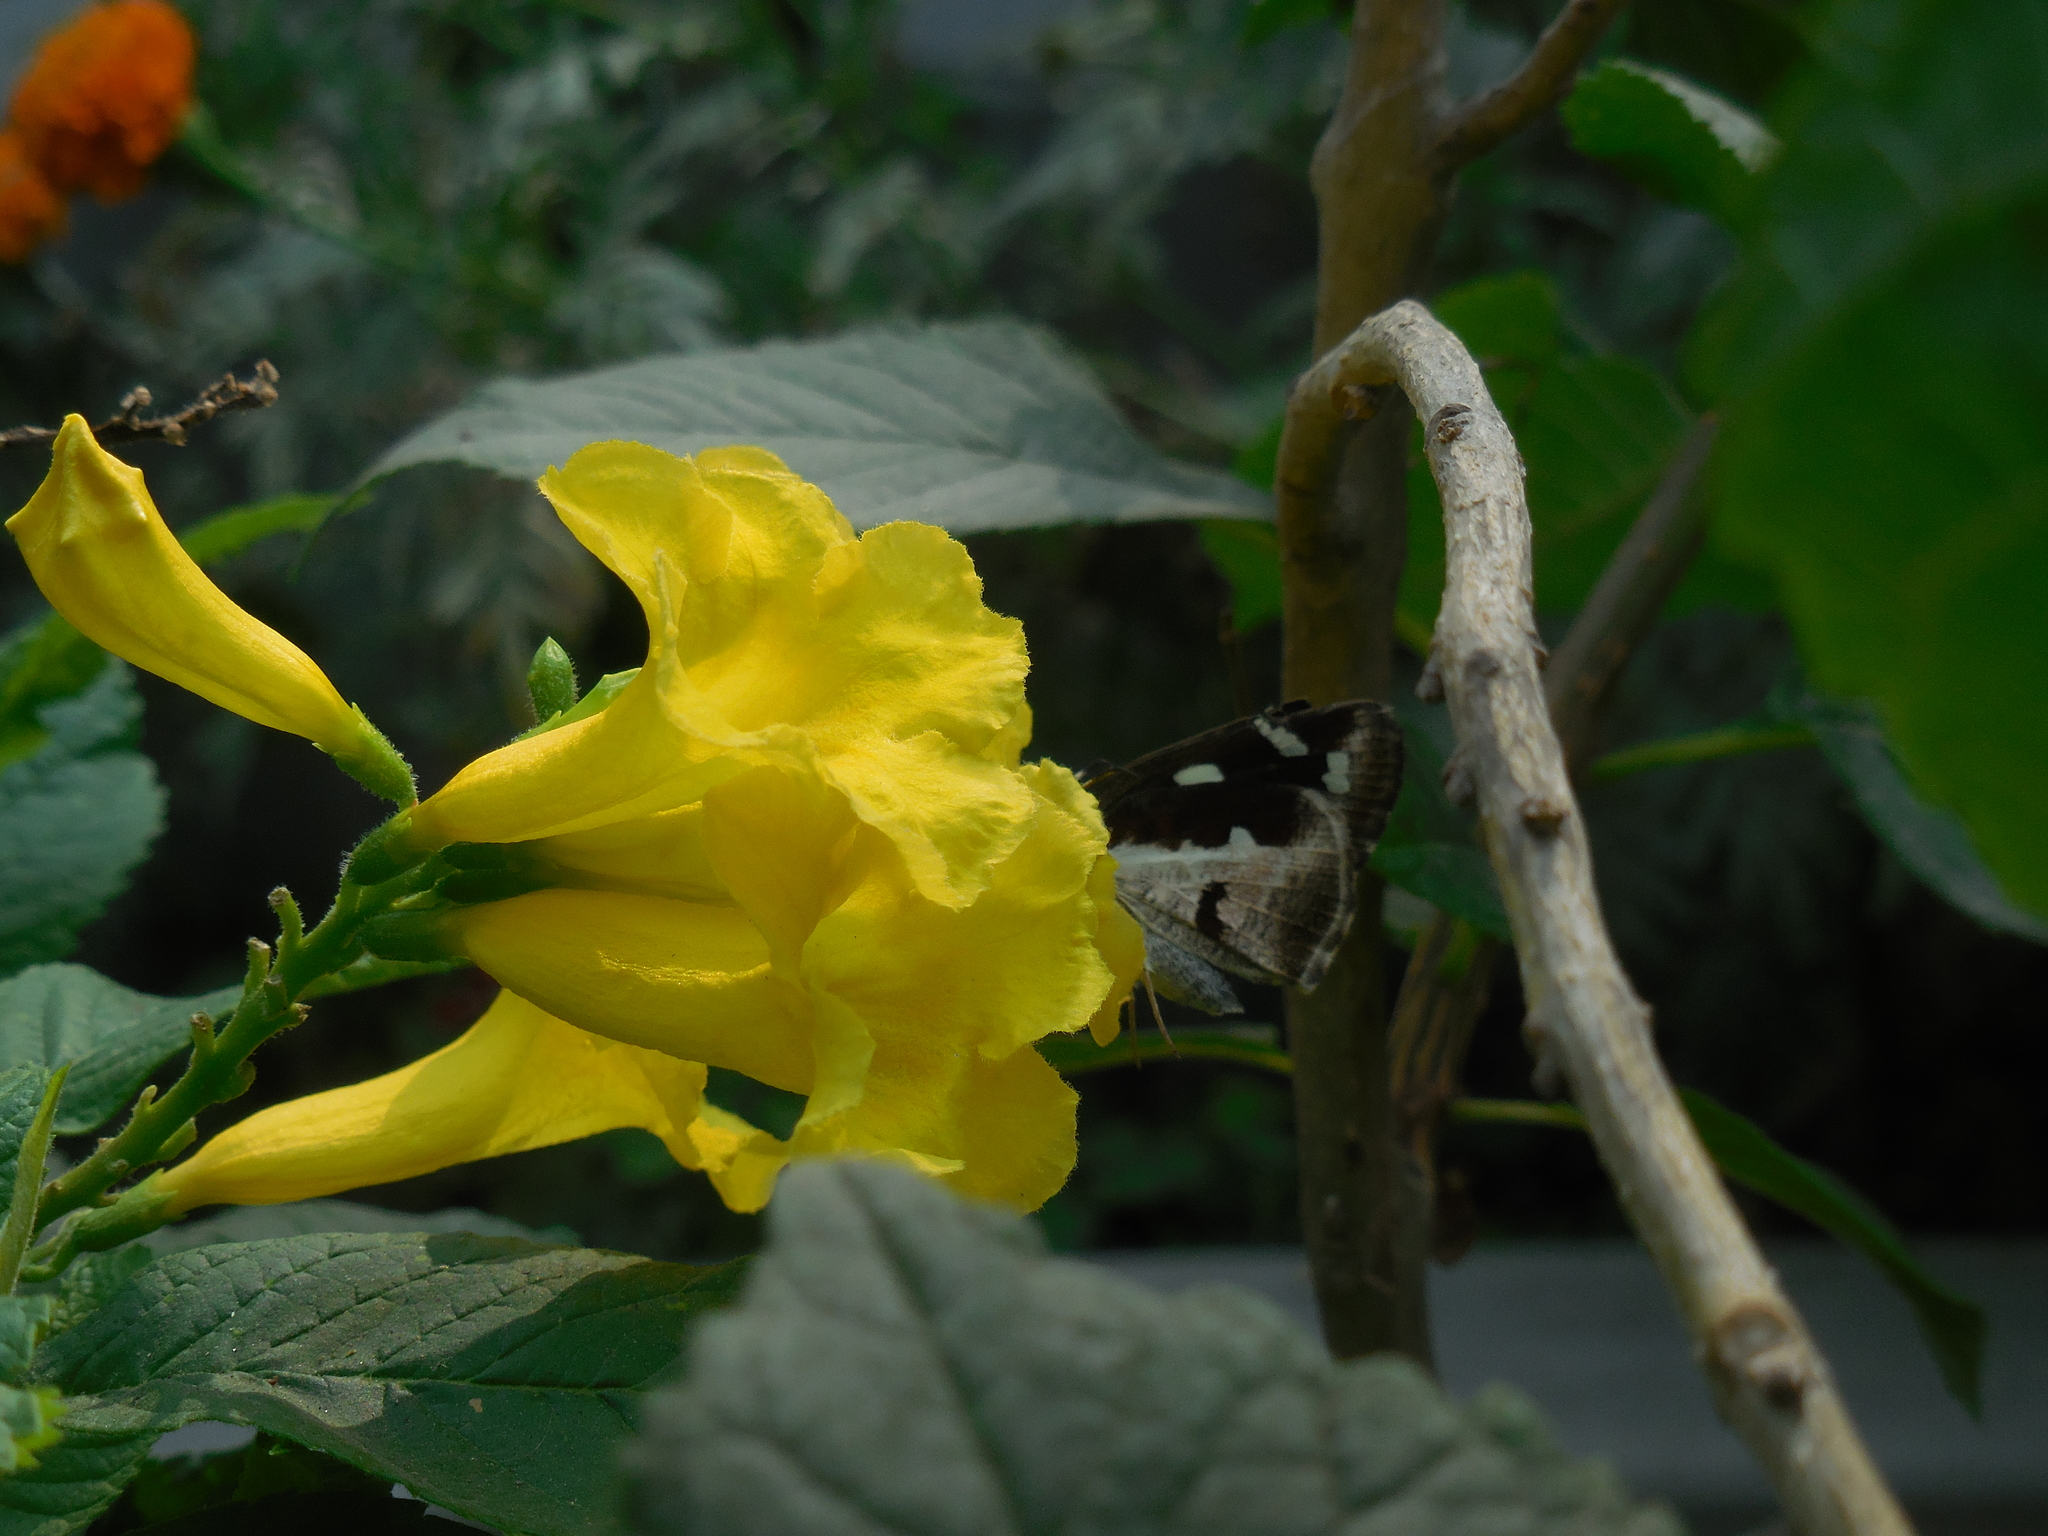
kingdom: Animalia
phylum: Arthropoda
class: Insecta
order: Lepidoptera
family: Hesperiidae
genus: Udaspes
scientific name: Udaspes folus
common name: Grass demon
